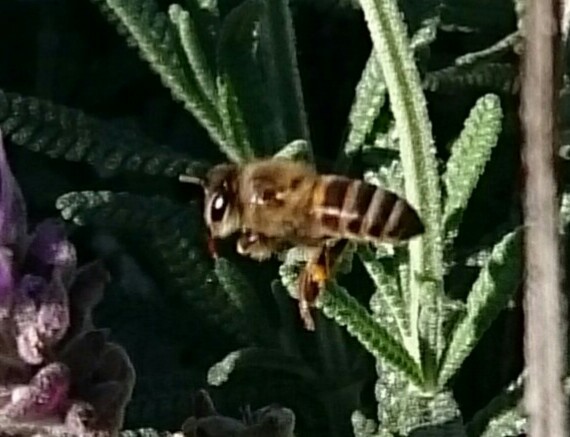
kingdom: Animalia
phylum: Arthropoda
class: Insecta
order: Hymenoptera
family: Apidae
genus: Apis
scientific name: Apis mellifera
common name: Honey bee
